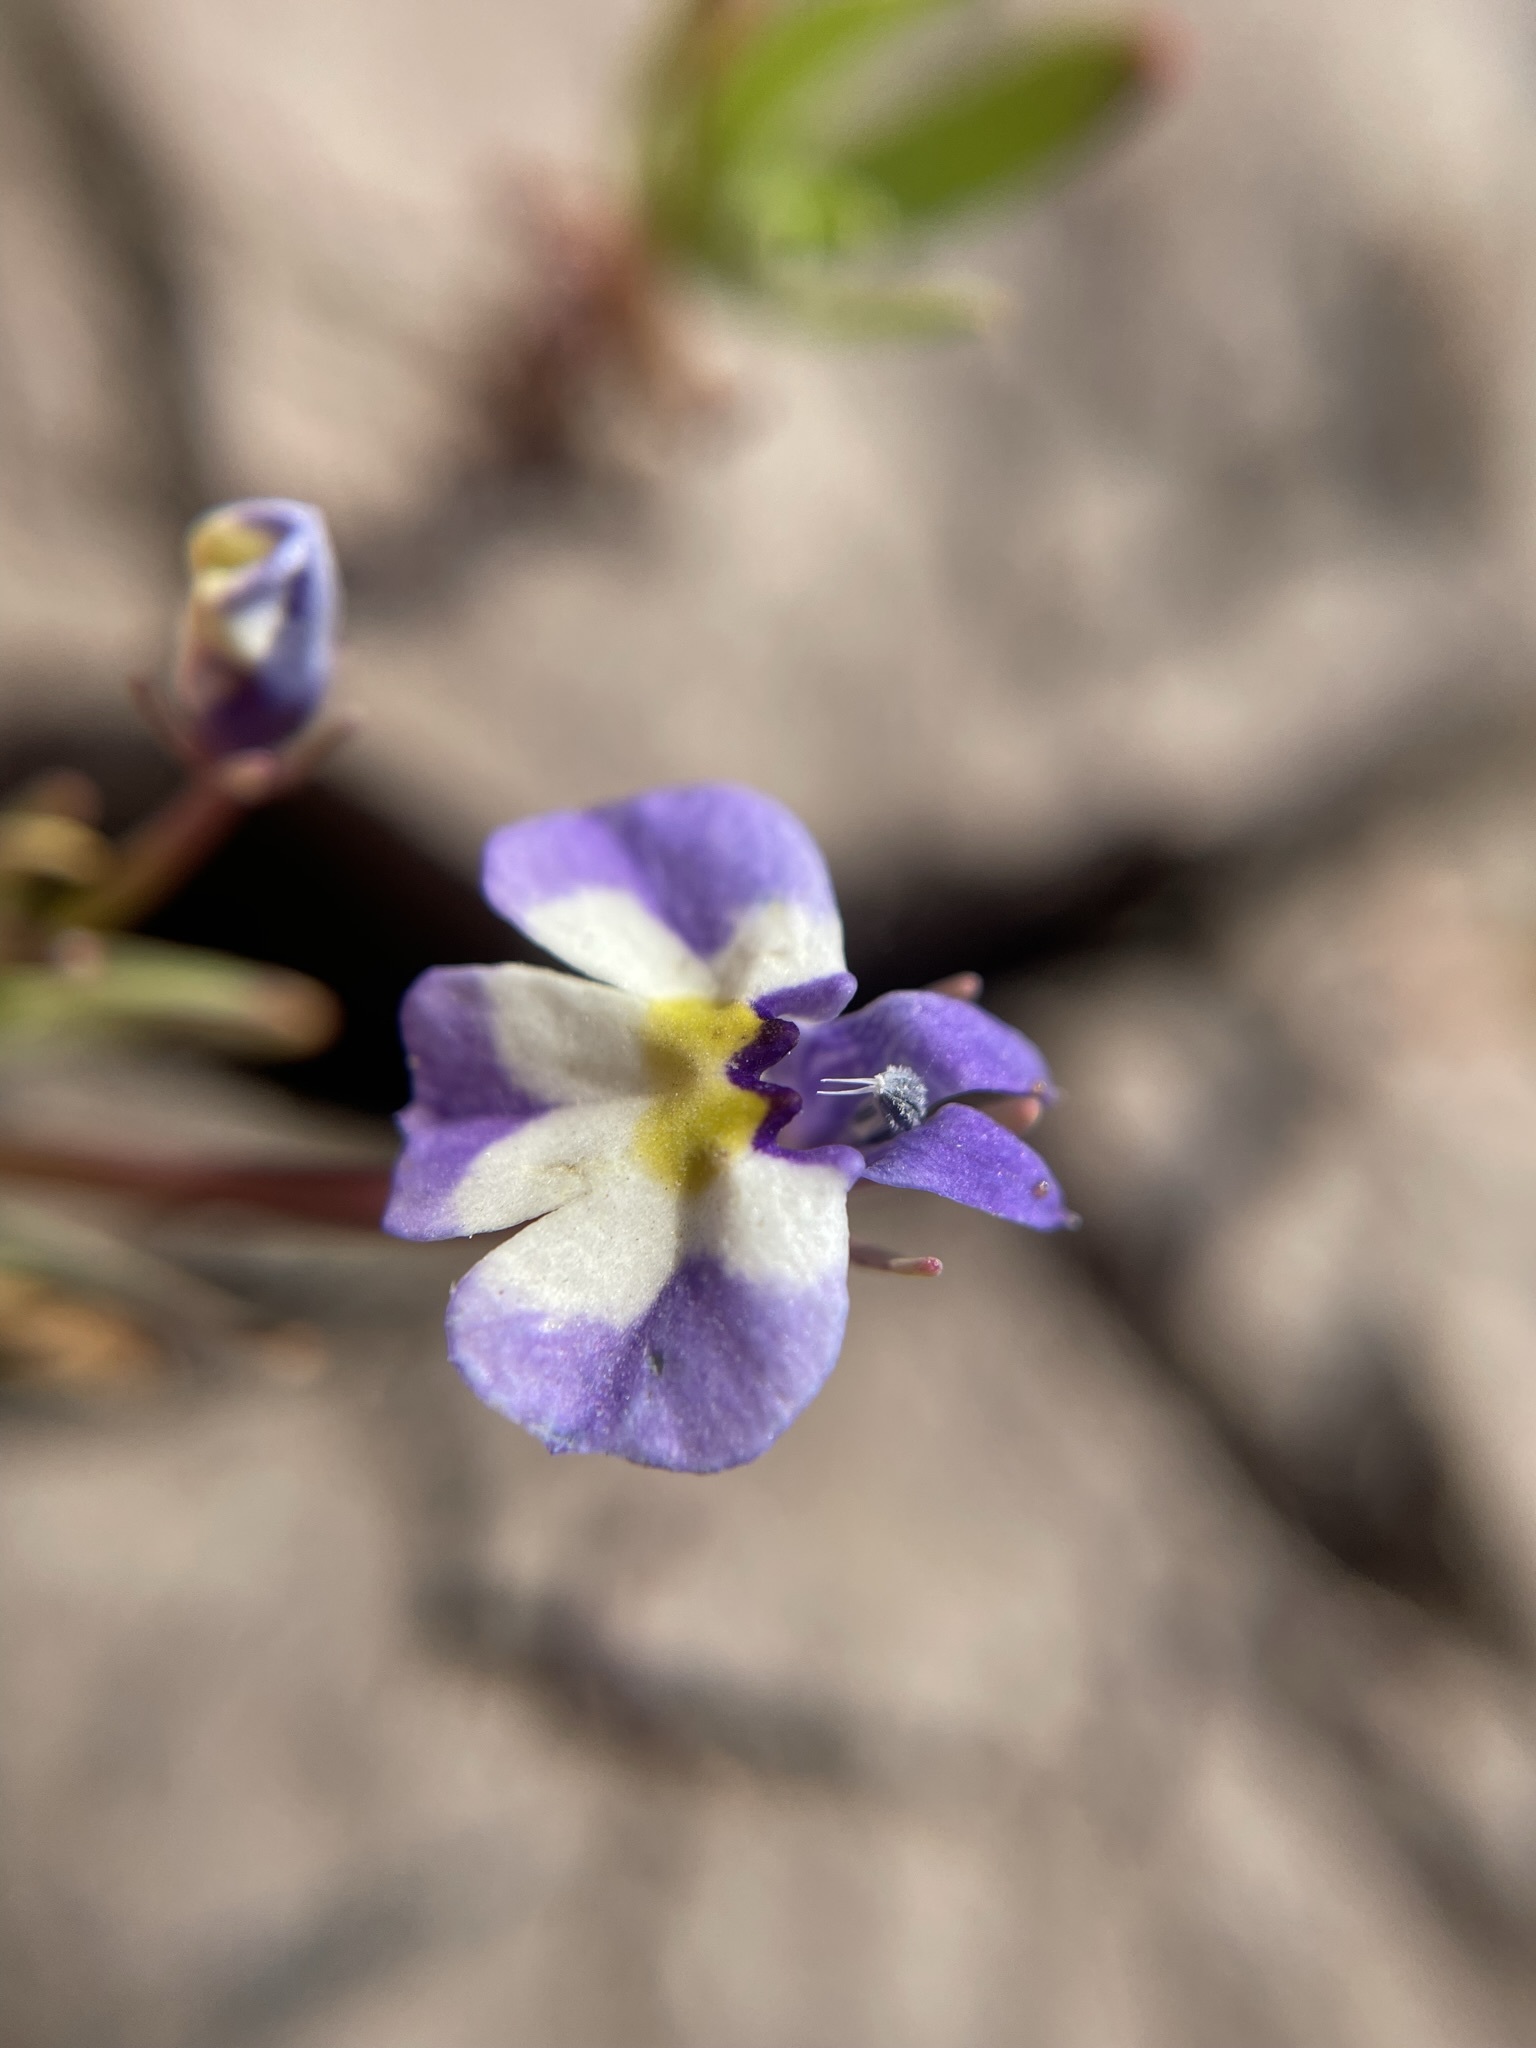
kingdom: Plantae
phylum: Tracheophyta
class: Magnoliopsida
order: Asterales
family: Campanulaceae
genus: Downingia
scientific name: Downingia bicornuta
